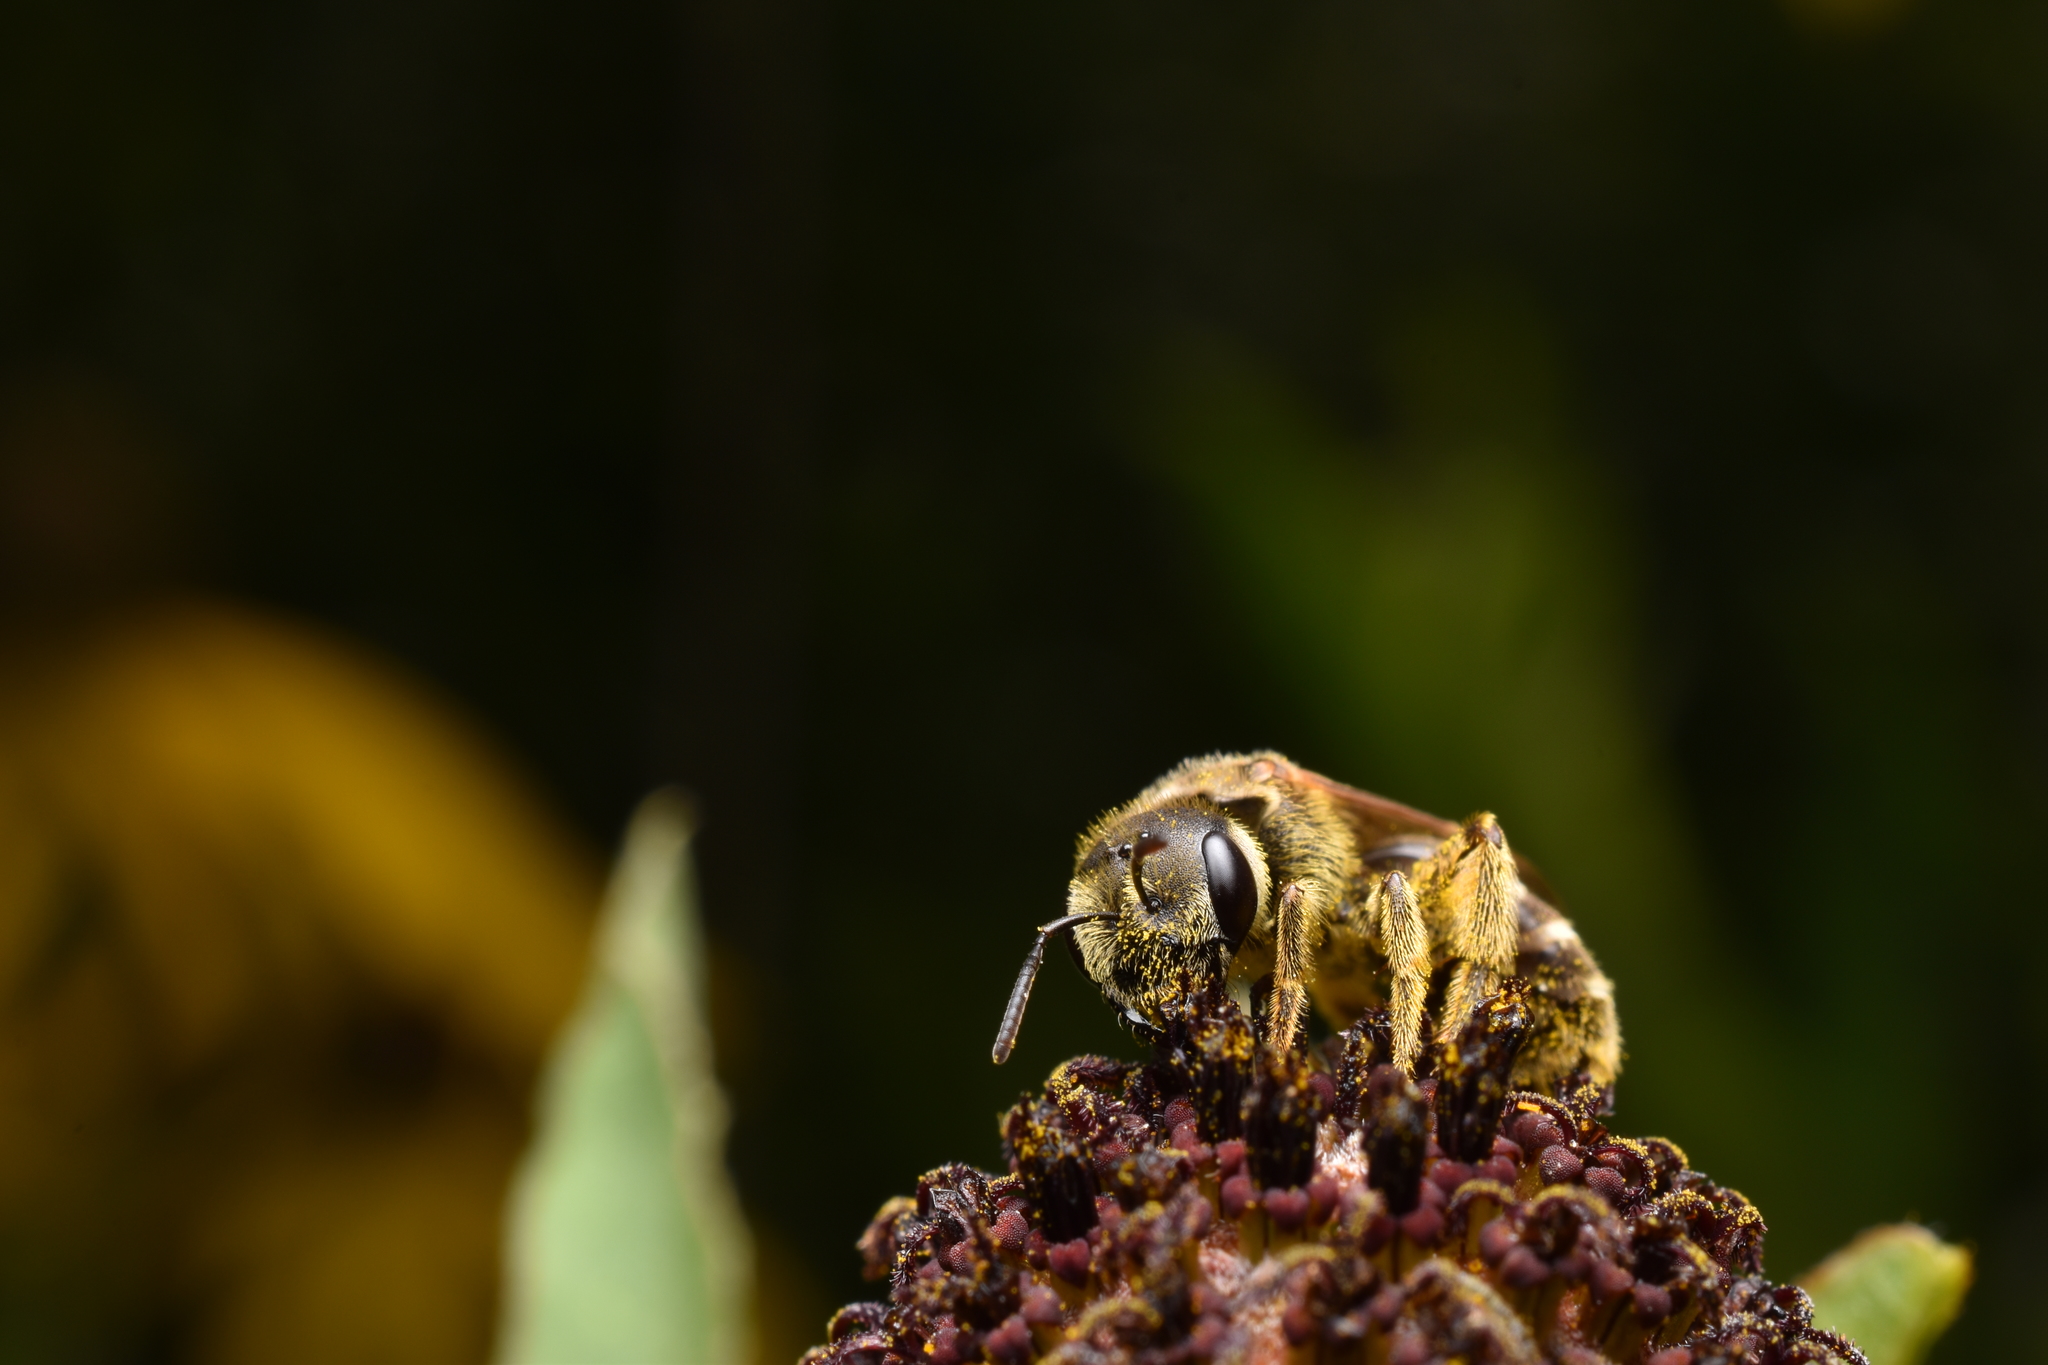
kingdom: Animalia
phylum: Arthropoda
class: Insecta
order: Hymenoptera
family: Halictidae
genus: Halictus
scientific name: Halictus ligatus
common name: Ligated furrow bee
